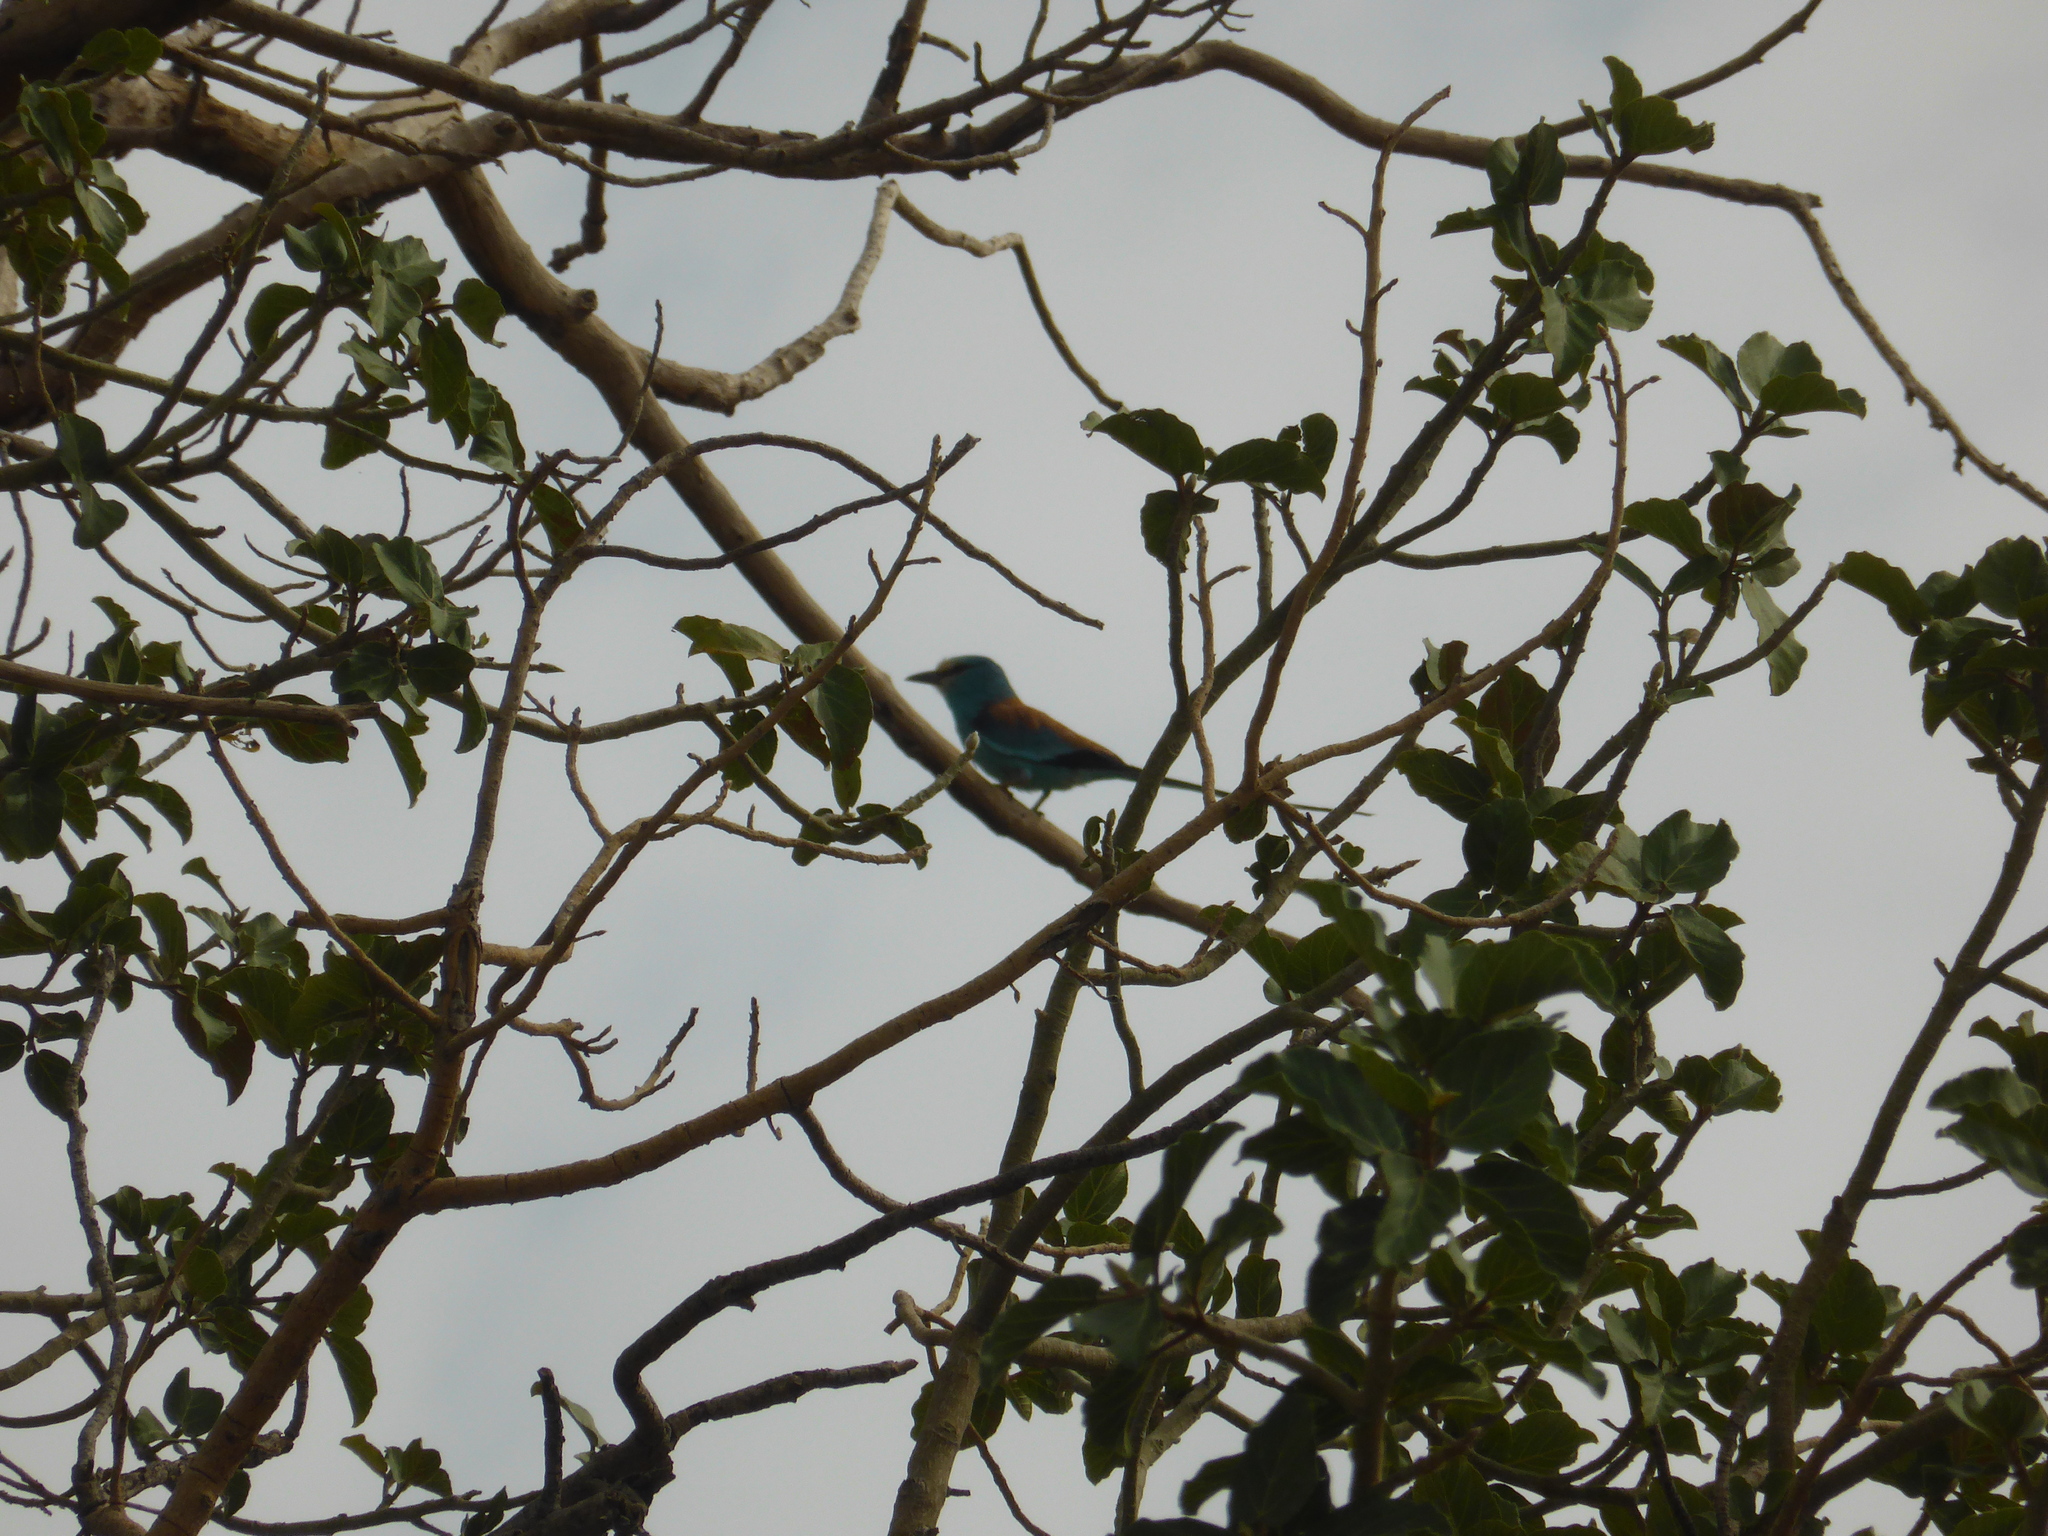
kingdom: Animalia
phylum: Chordata
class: Aves
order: Coraciiformes
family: Coraciidae
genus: Coracias
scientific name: Coracias abyssinicus
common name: Abyssinian roller
